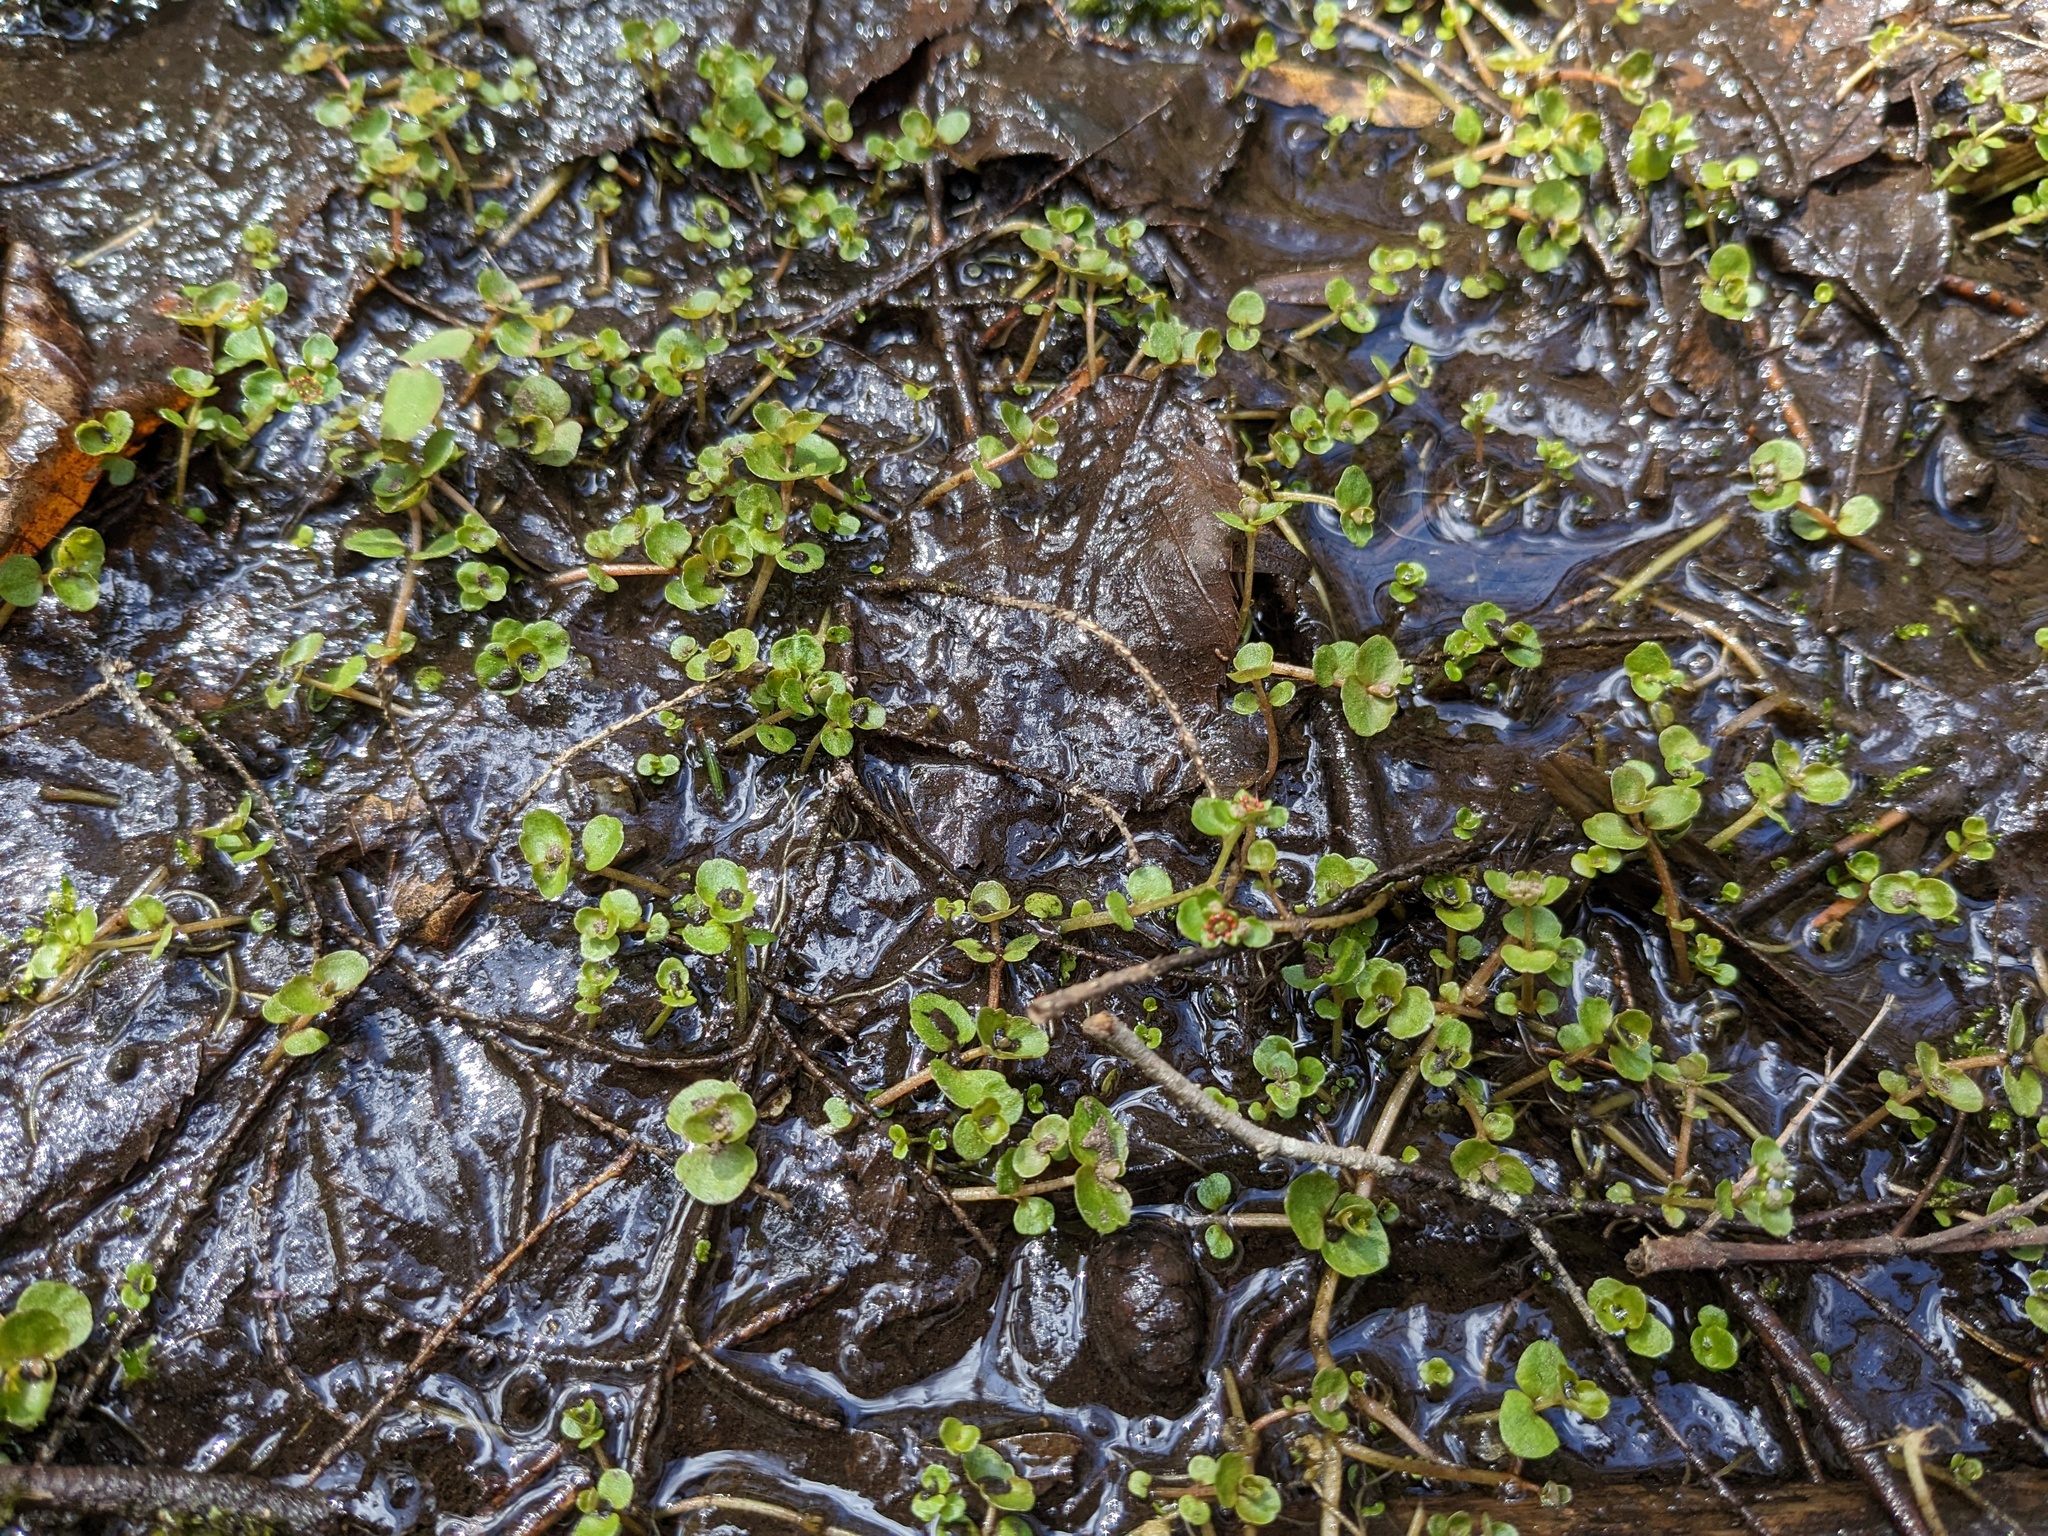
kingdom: Plantae
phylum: Tracheophyta
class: Magnoliopsida
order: Saxifragales
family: Saxifragaceae
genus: Chrysosplenium
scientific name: Chrysosplenium americanum
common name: American golden-saxifrage
